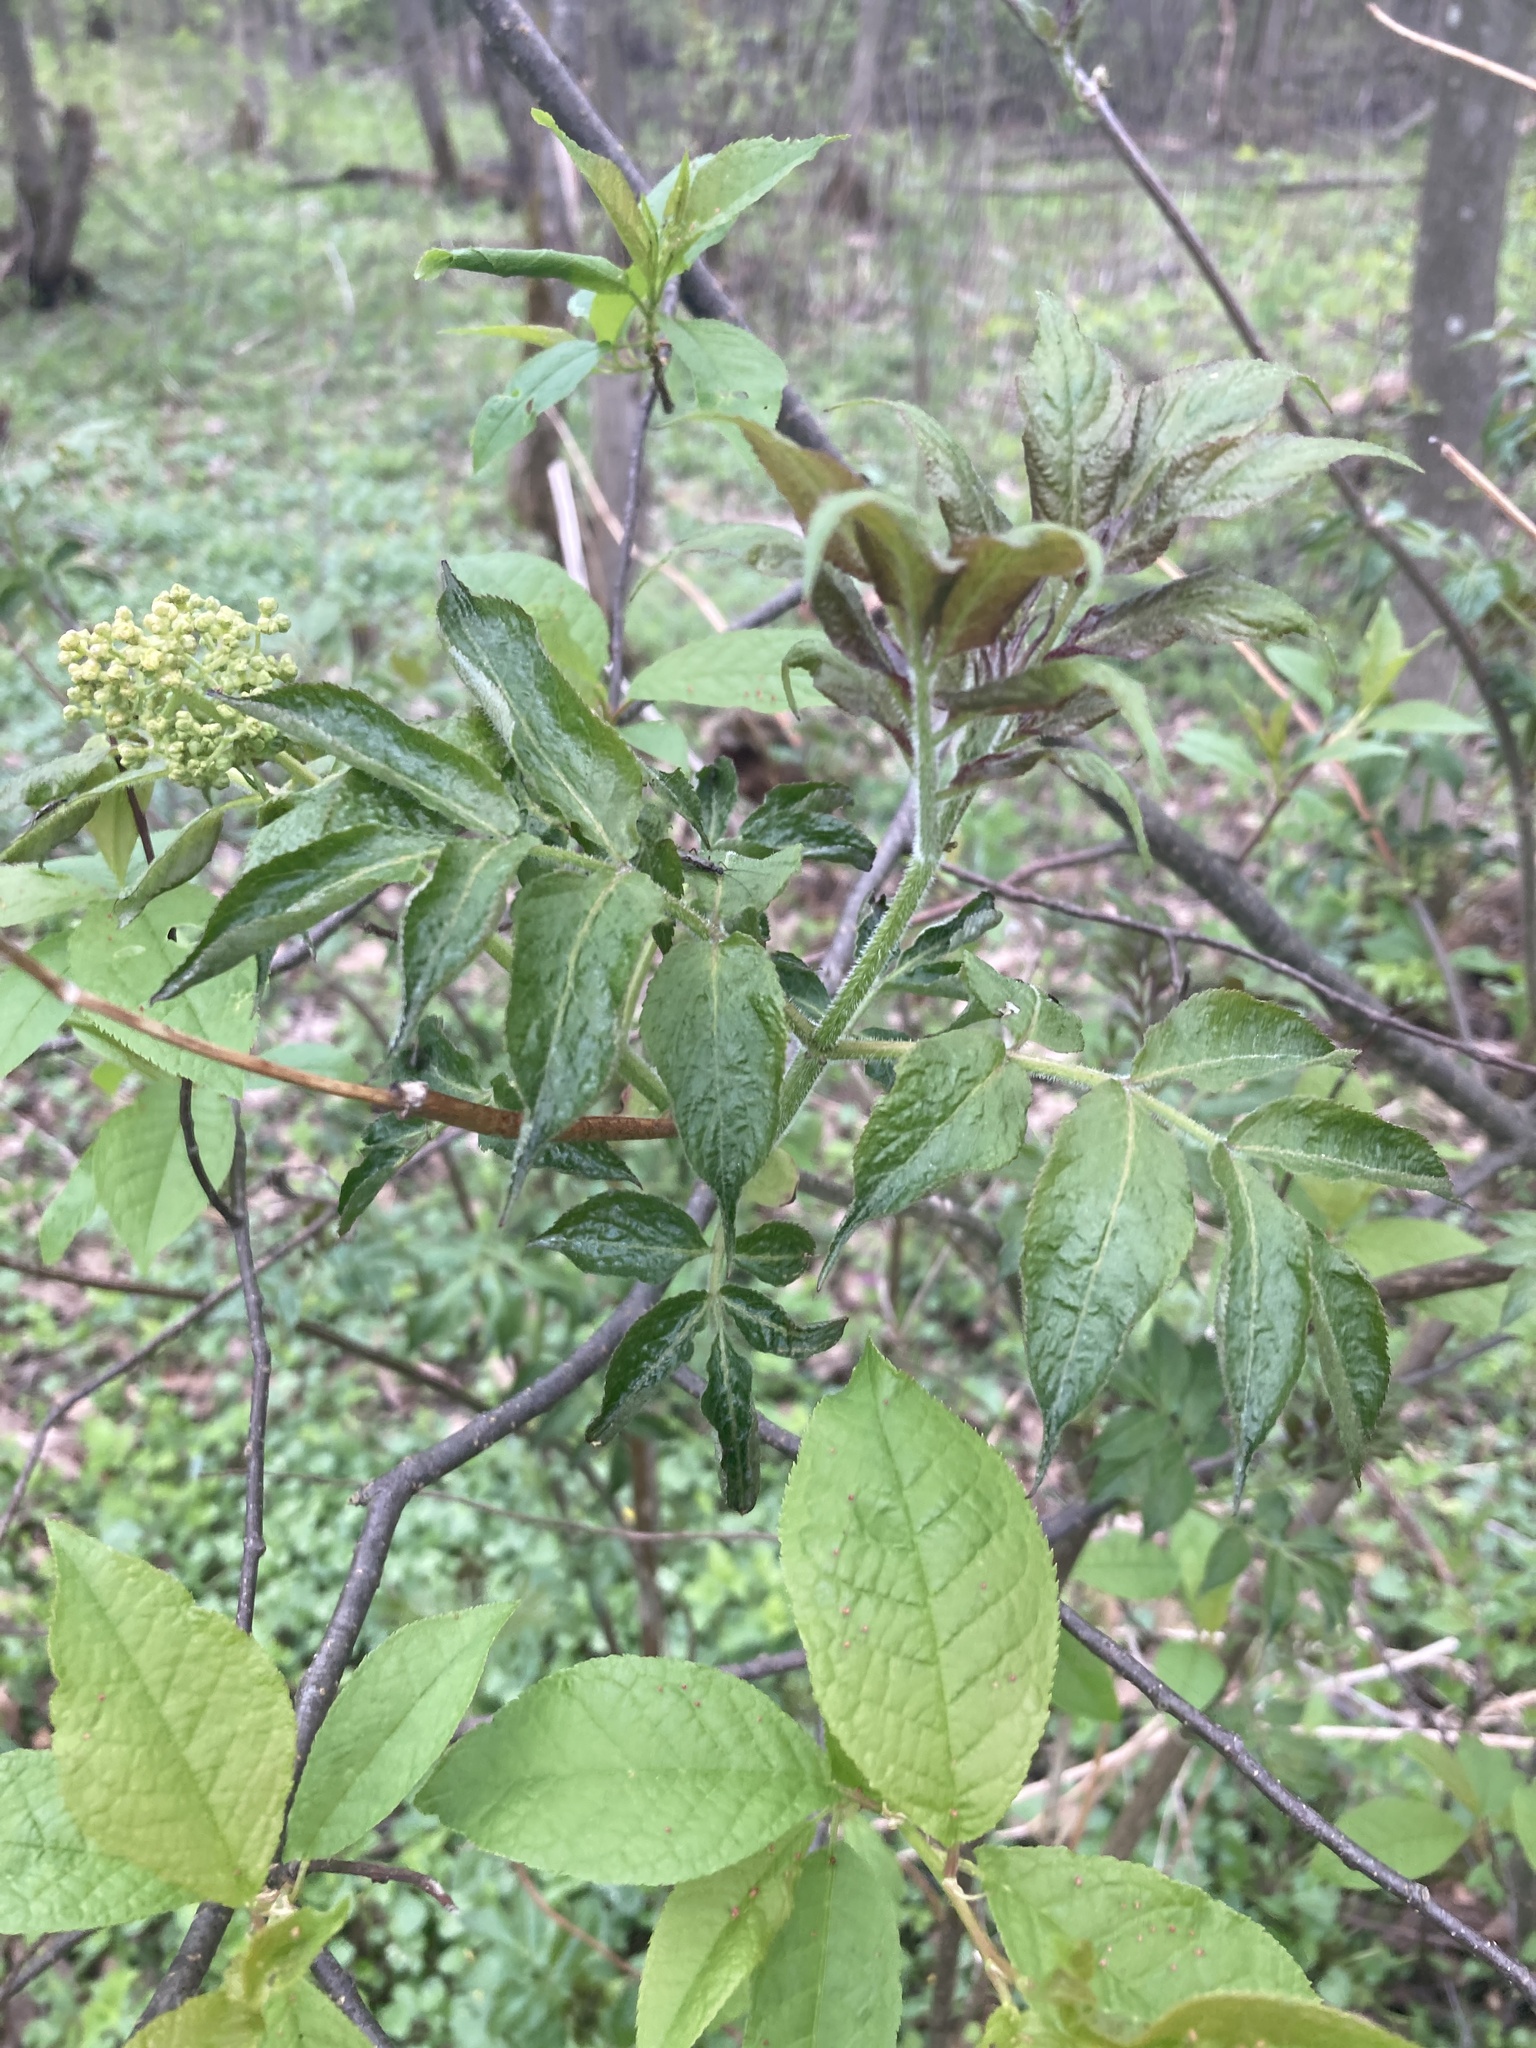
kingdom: Plantae
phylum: Tracheophyta
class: Magnoliopsida
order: Dipsacales
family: Viburnaceae
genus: Sambucus
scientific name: Sambucus racemosa
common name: Red-berried elder
